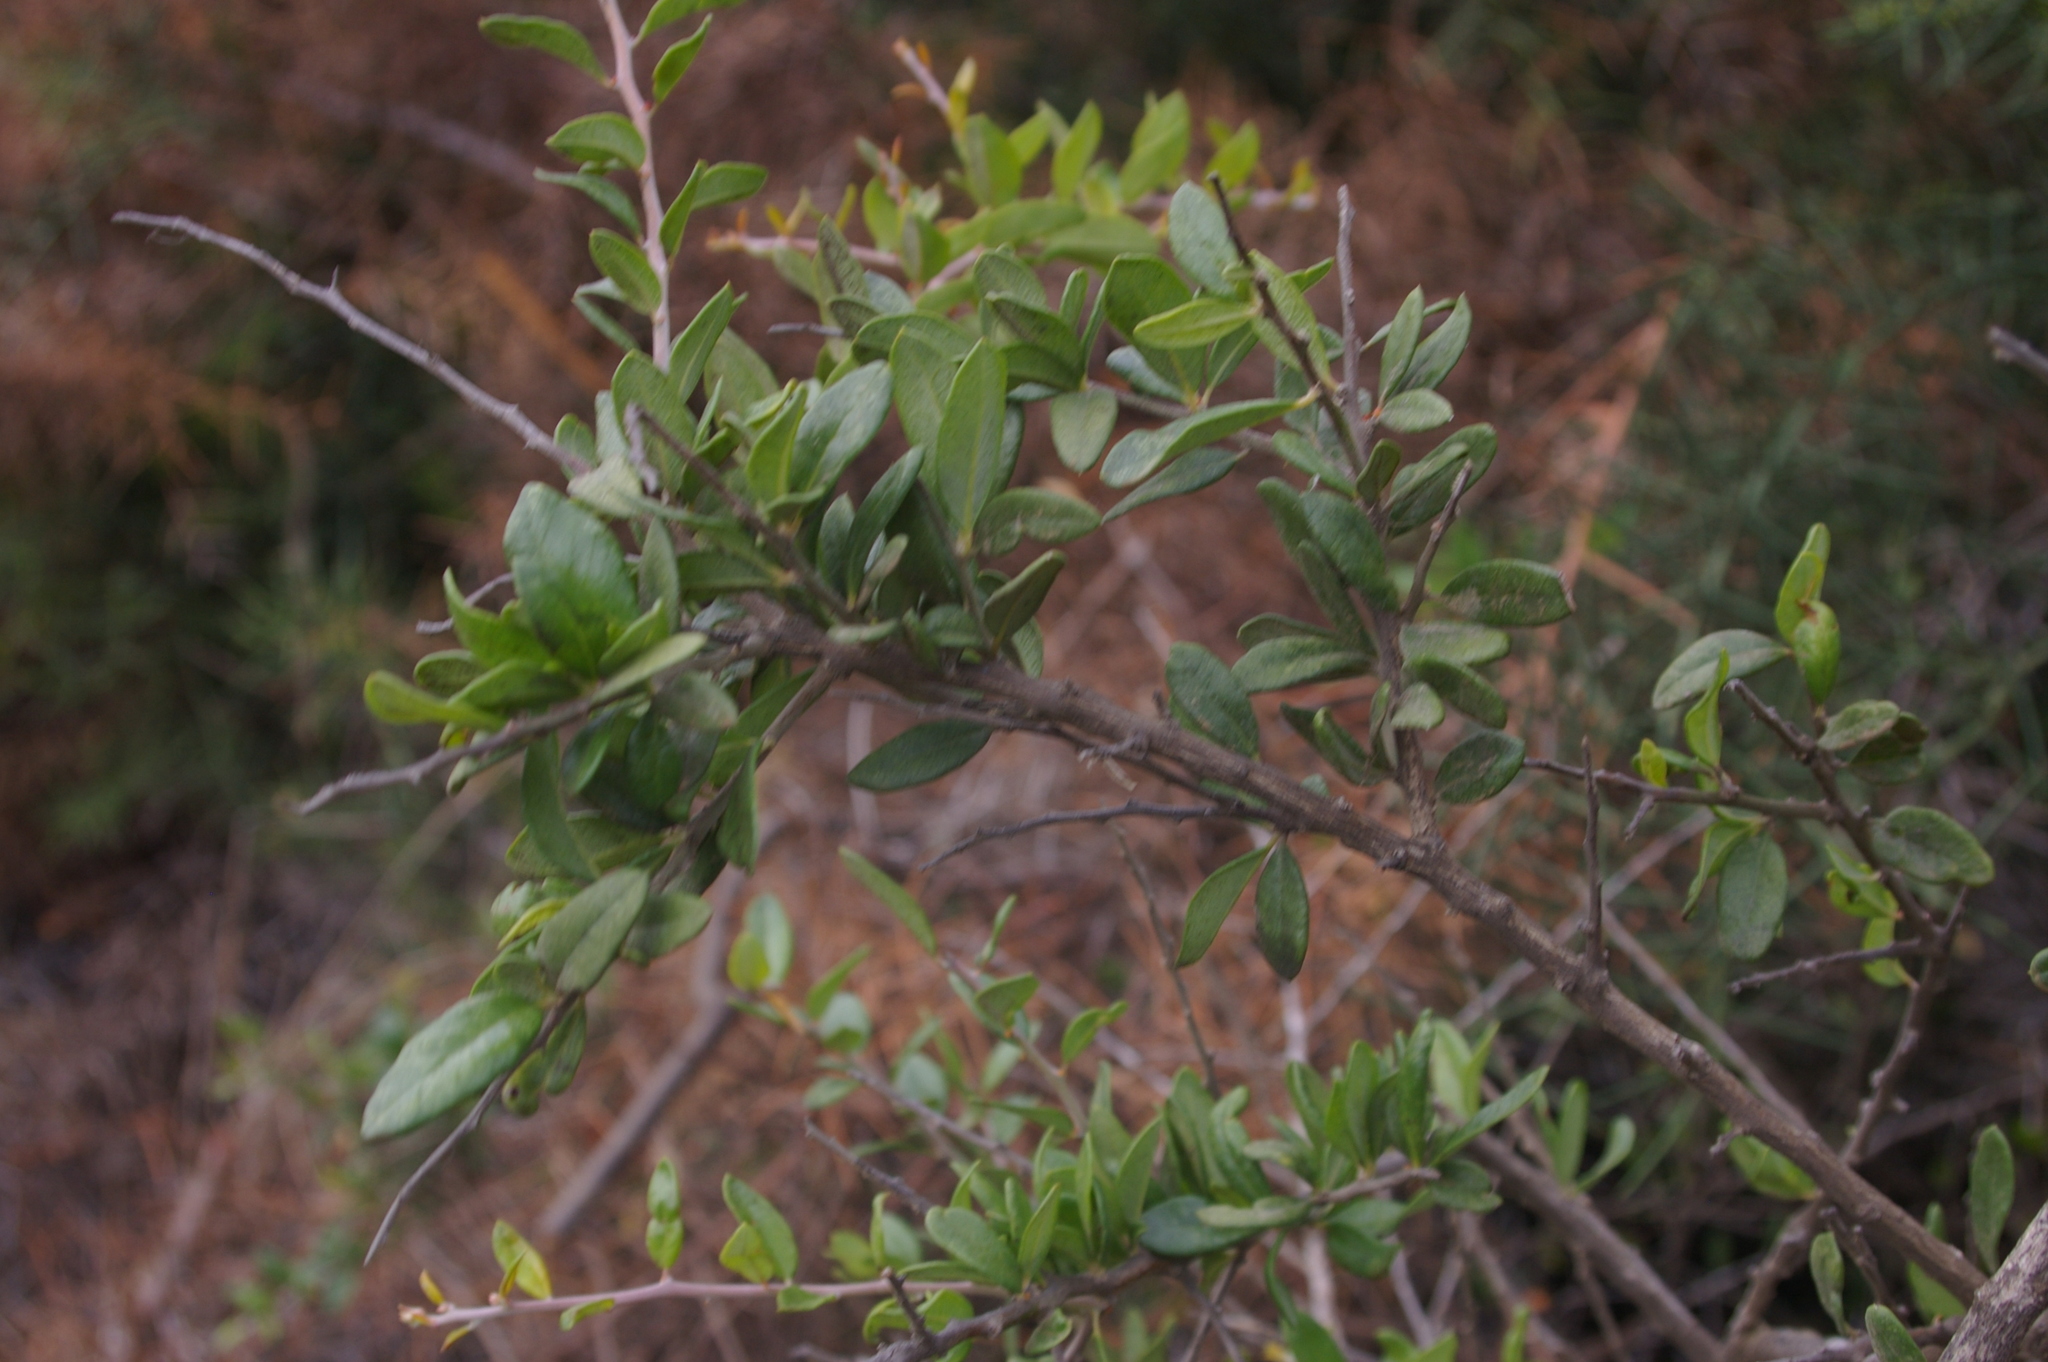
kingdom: Plantae
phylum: Tracheophyta
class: Magnoliopsida
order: Sapindales
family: Simaroubaceae
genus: Castela
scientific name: Castela galapageia
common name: Bitterbush
